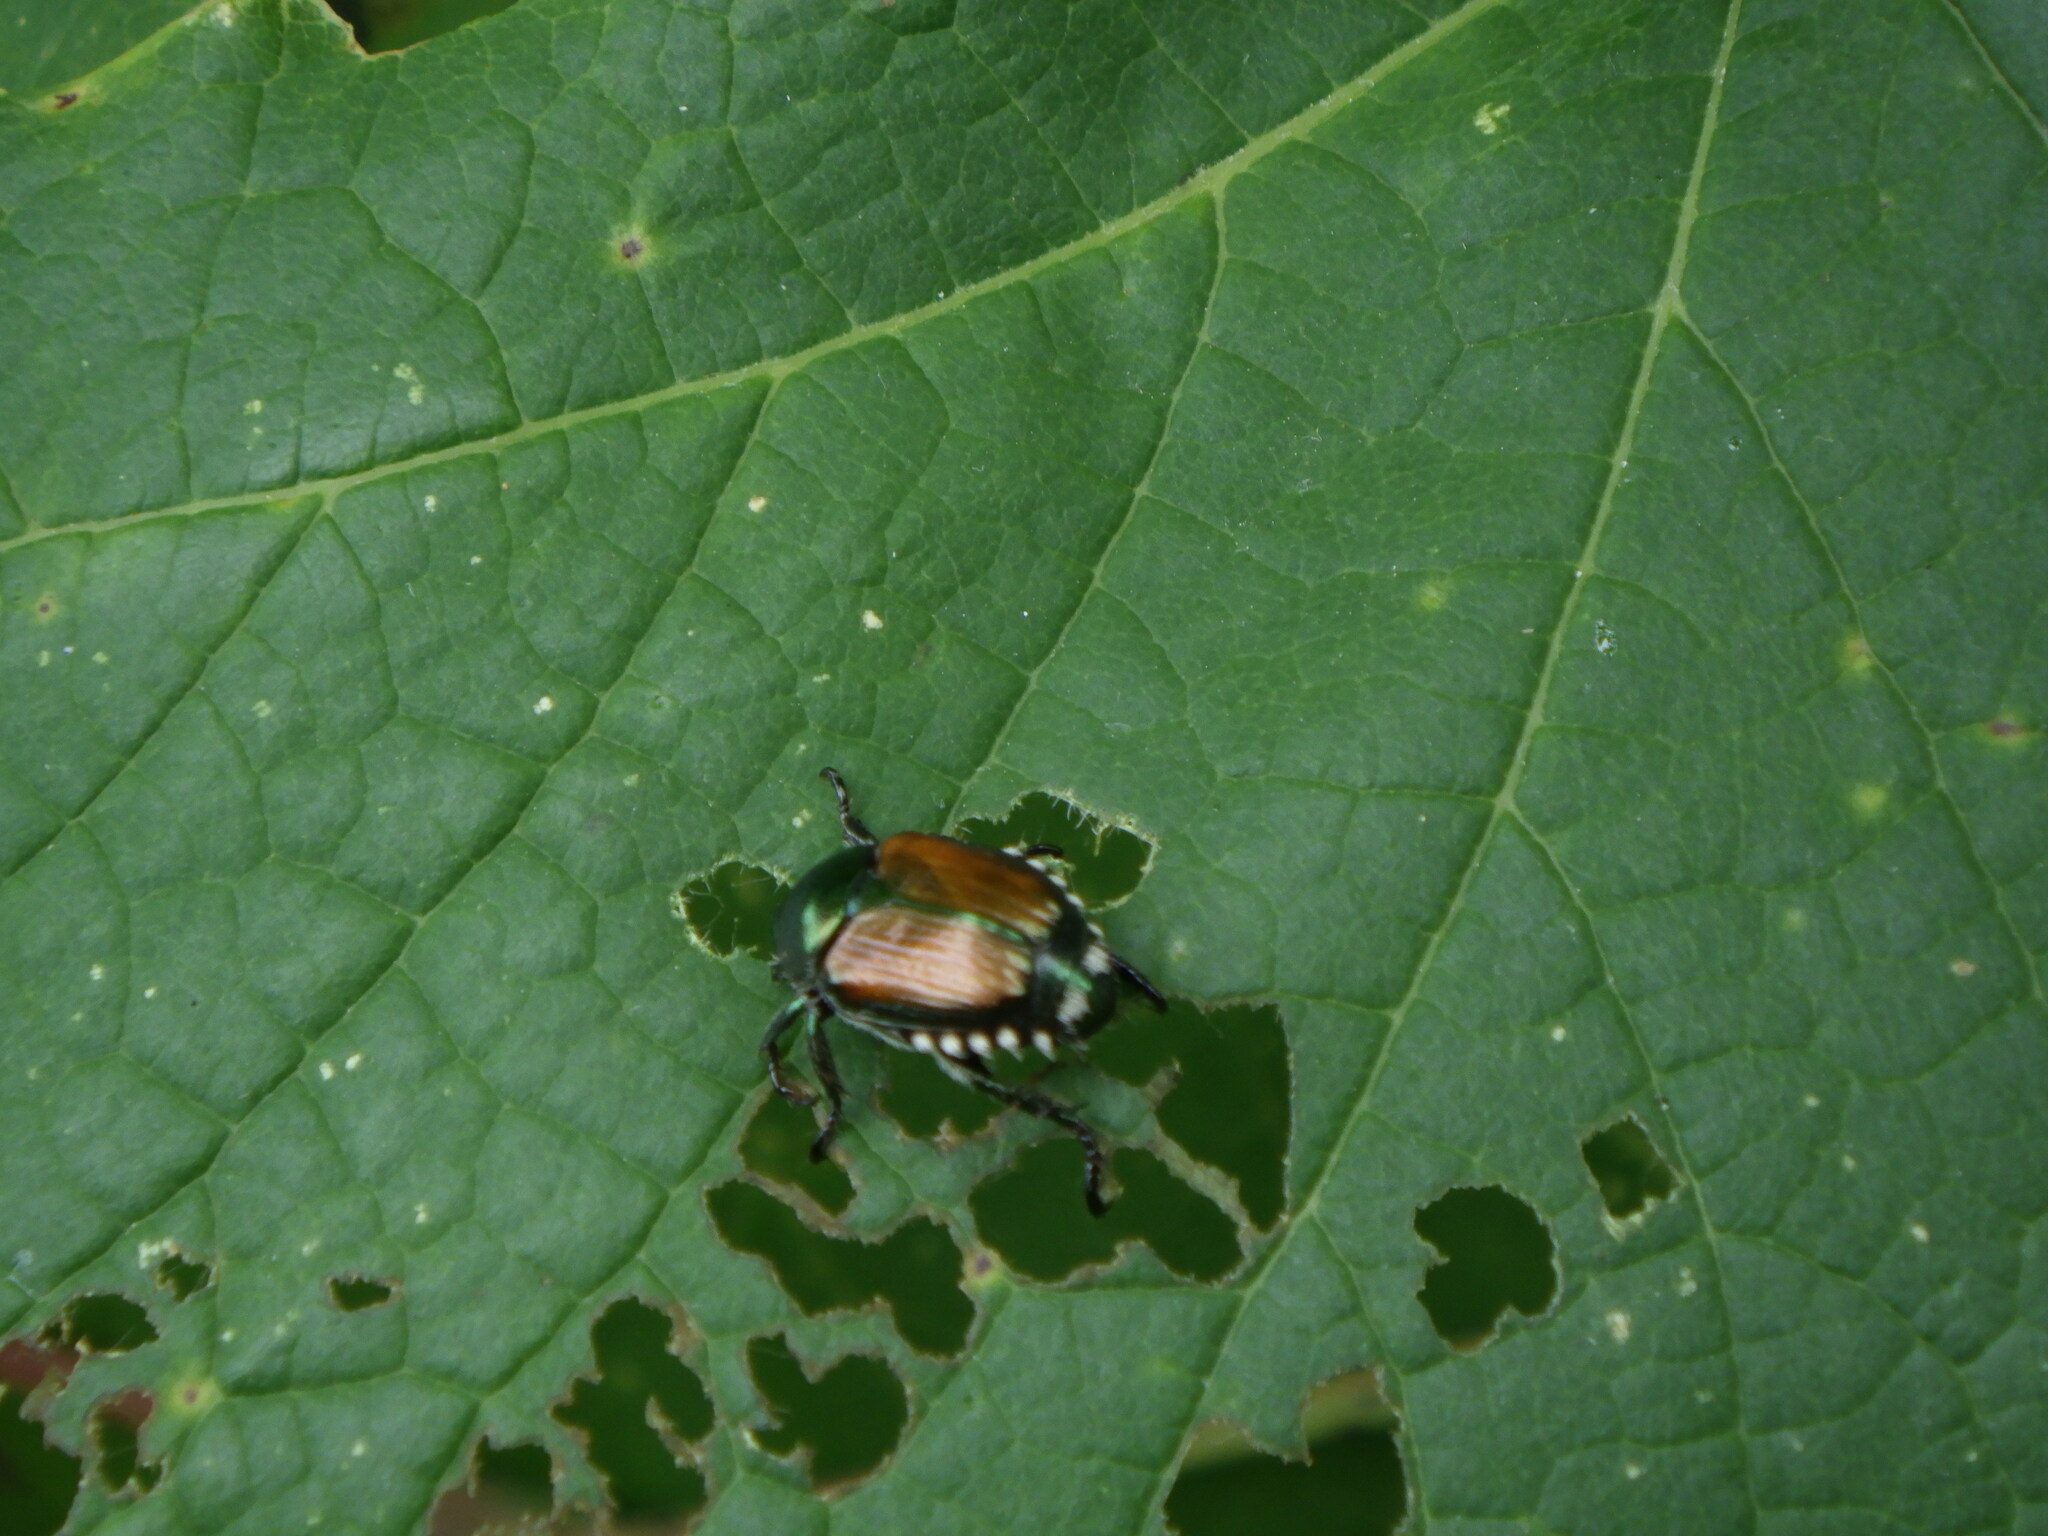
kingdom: Animalia
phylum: Arthropoda
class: Insecta
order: Coleoptera
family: Scarabaeidae
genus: Popillia
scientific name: Popillia japonica
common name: Japanese beetle
